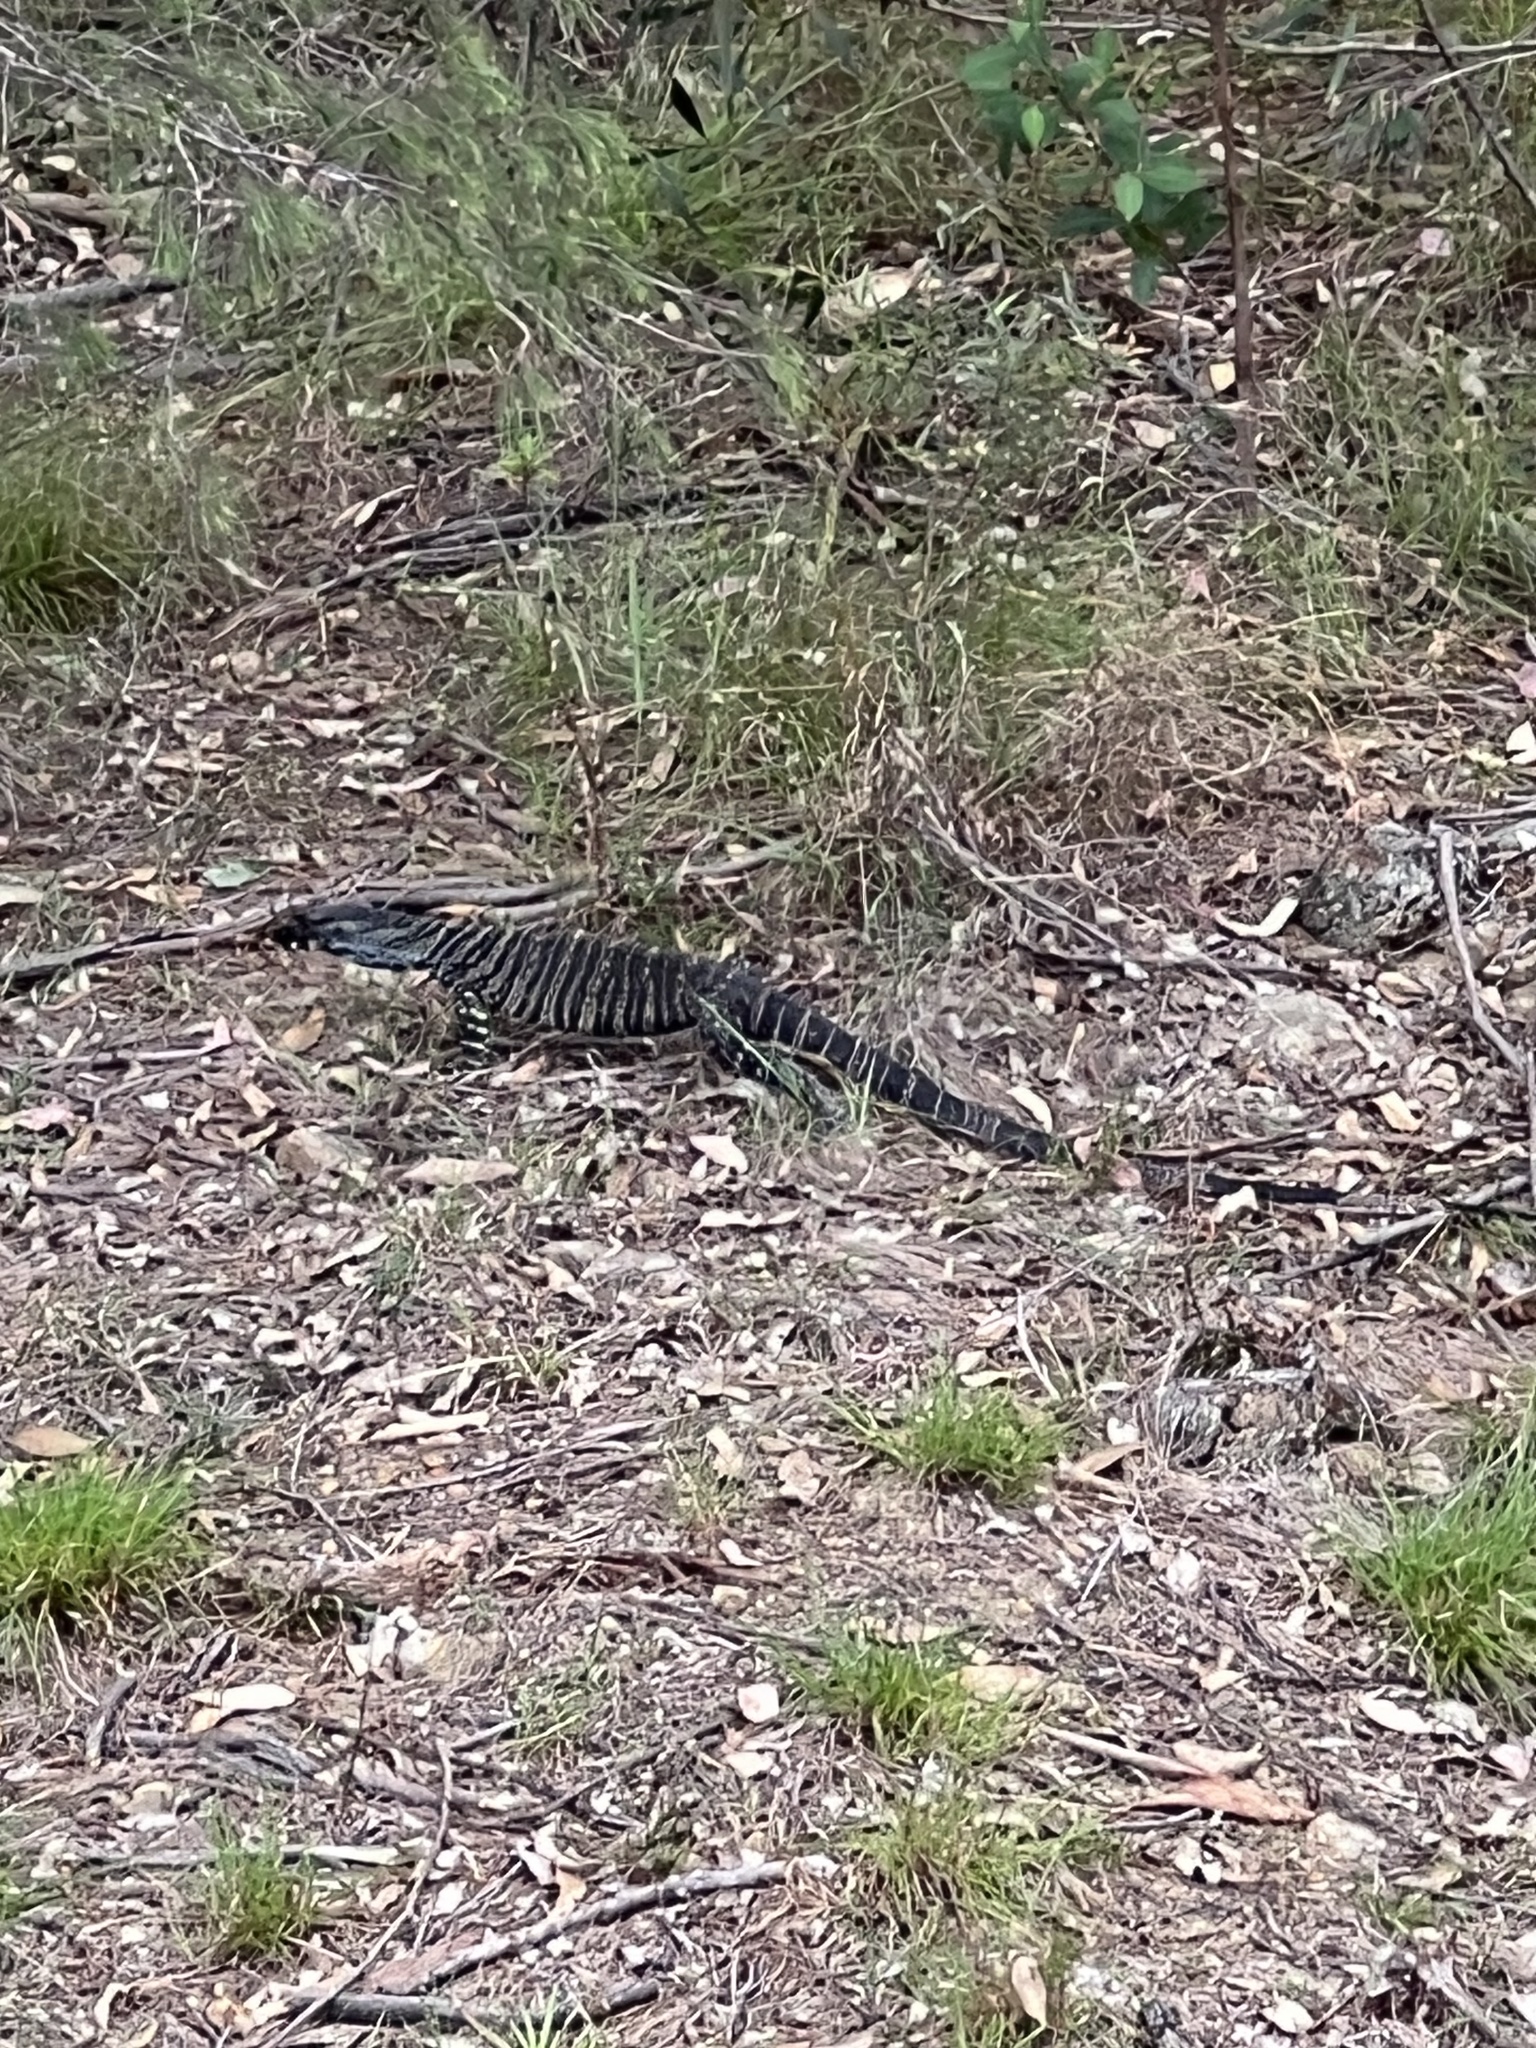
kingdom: Animalia
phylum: Chordata
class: Squamata
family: Varanidae
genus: Varanus
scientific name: Varanus varius
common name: Lace monitor
